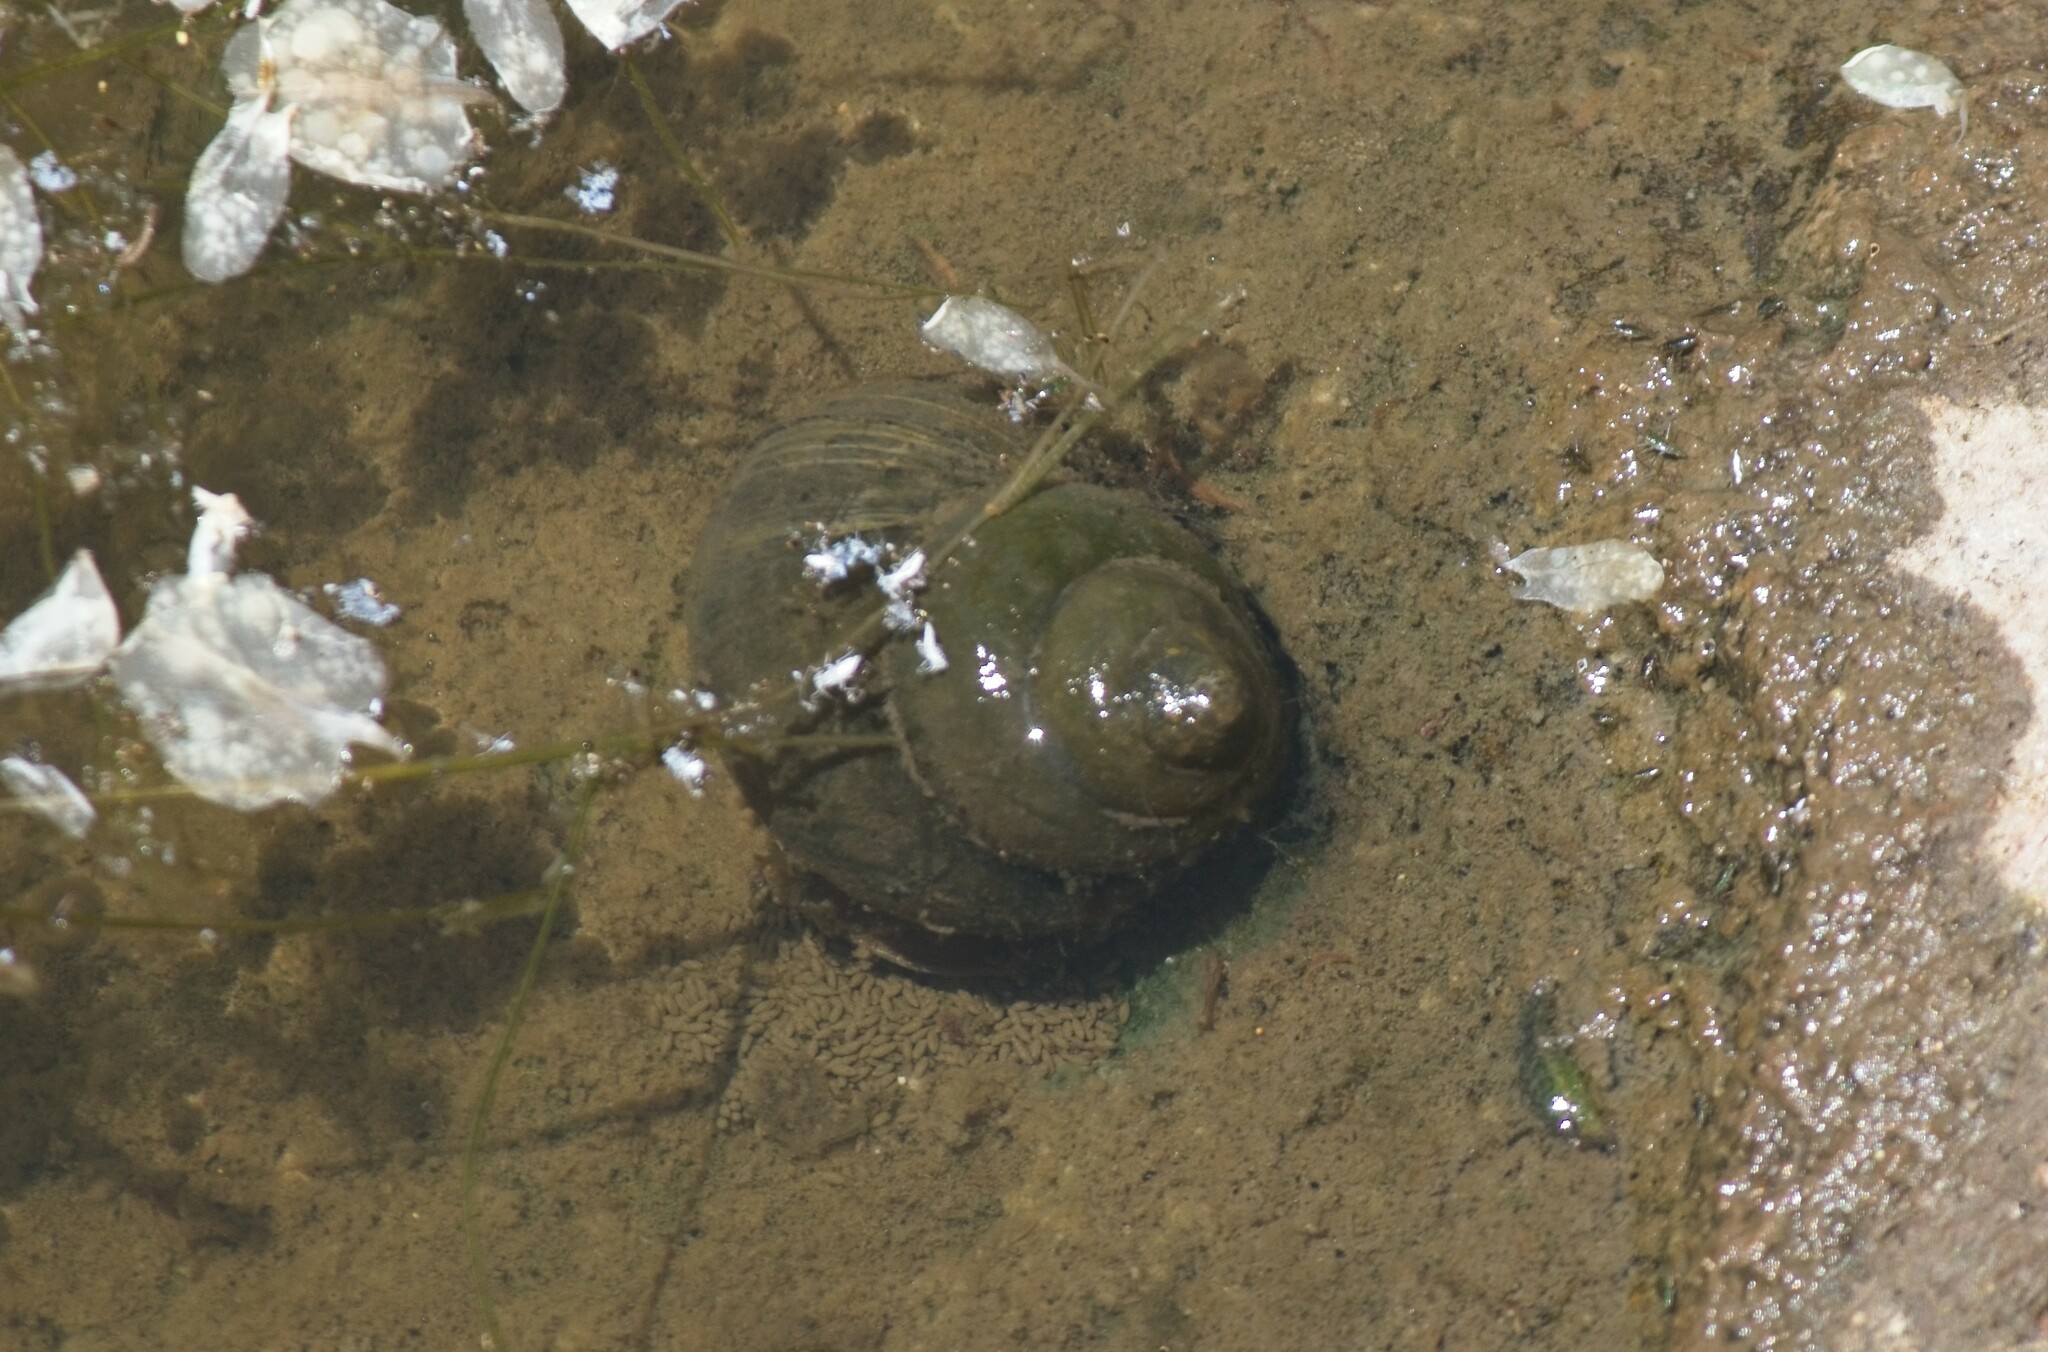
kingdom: Animalia
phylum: Mollusca
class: Gastropoda
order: Architaenioglossa
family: Viviparidae
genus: Cipangopaludina
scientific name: Cipangopaludina chinensis
